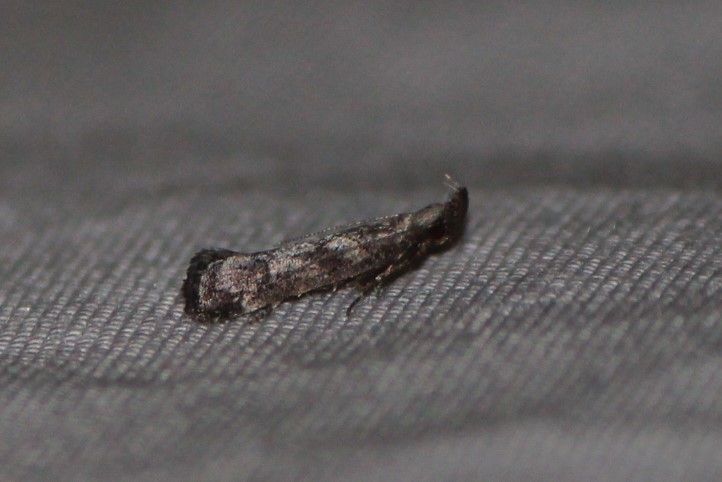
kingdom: Animalia
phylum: Arthropoda
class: Insecta
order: Lepidoptera
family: Gelechiidae
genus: Dichomeris
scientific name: Dichomeris inversella
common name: Inverse dichomeris moth
